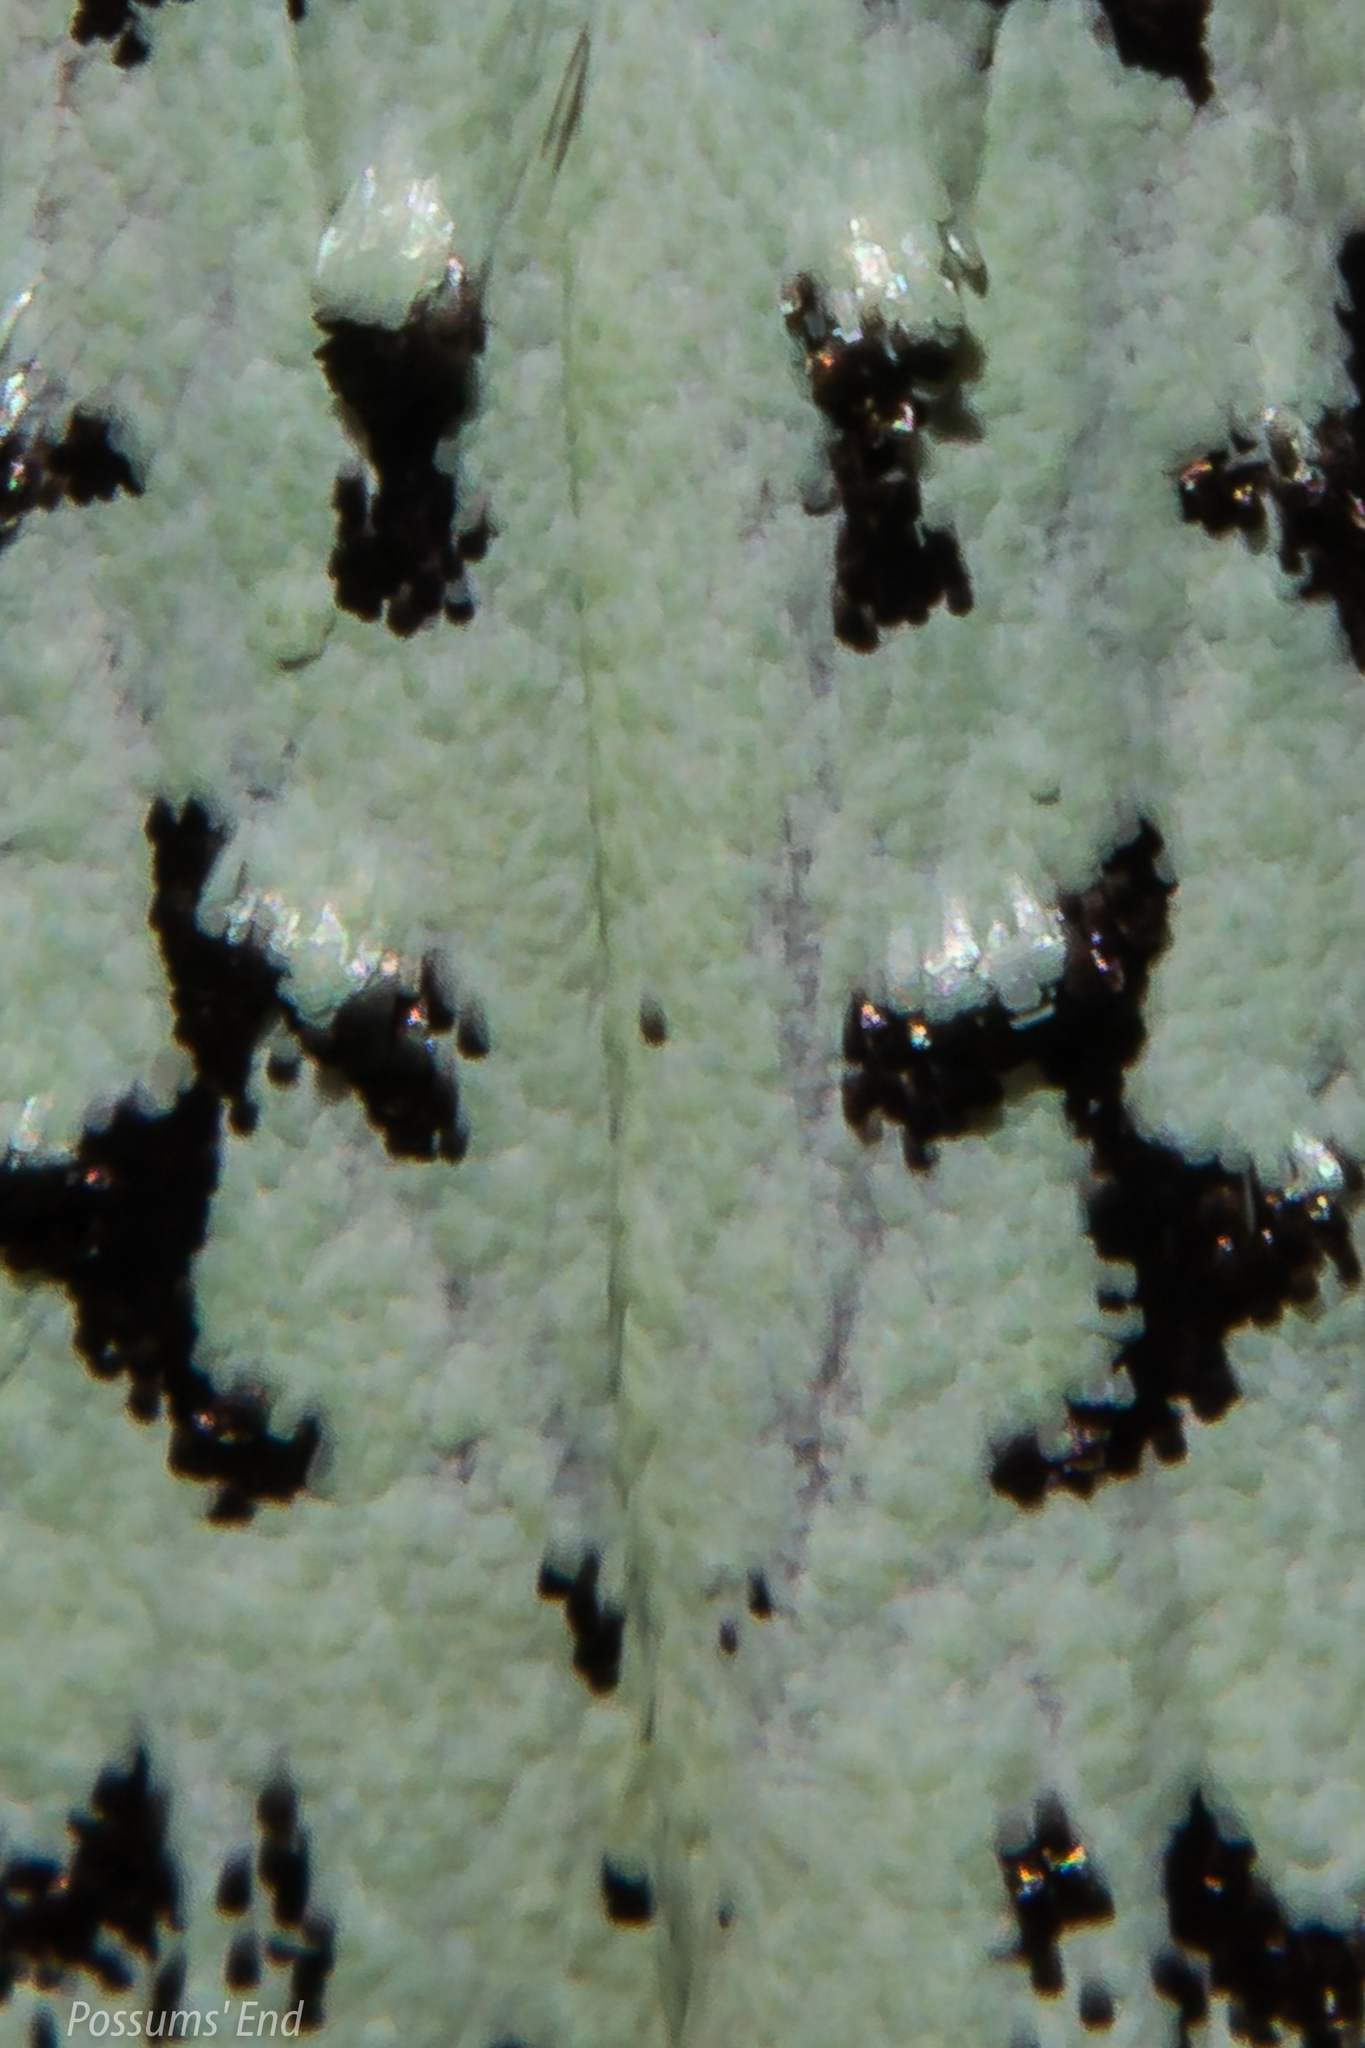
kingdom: Animalia
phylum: Arthropoda
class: Insecta
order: Lepidoptera
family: Oecophoridae
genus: Izatha
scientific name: Izatha huttoni
